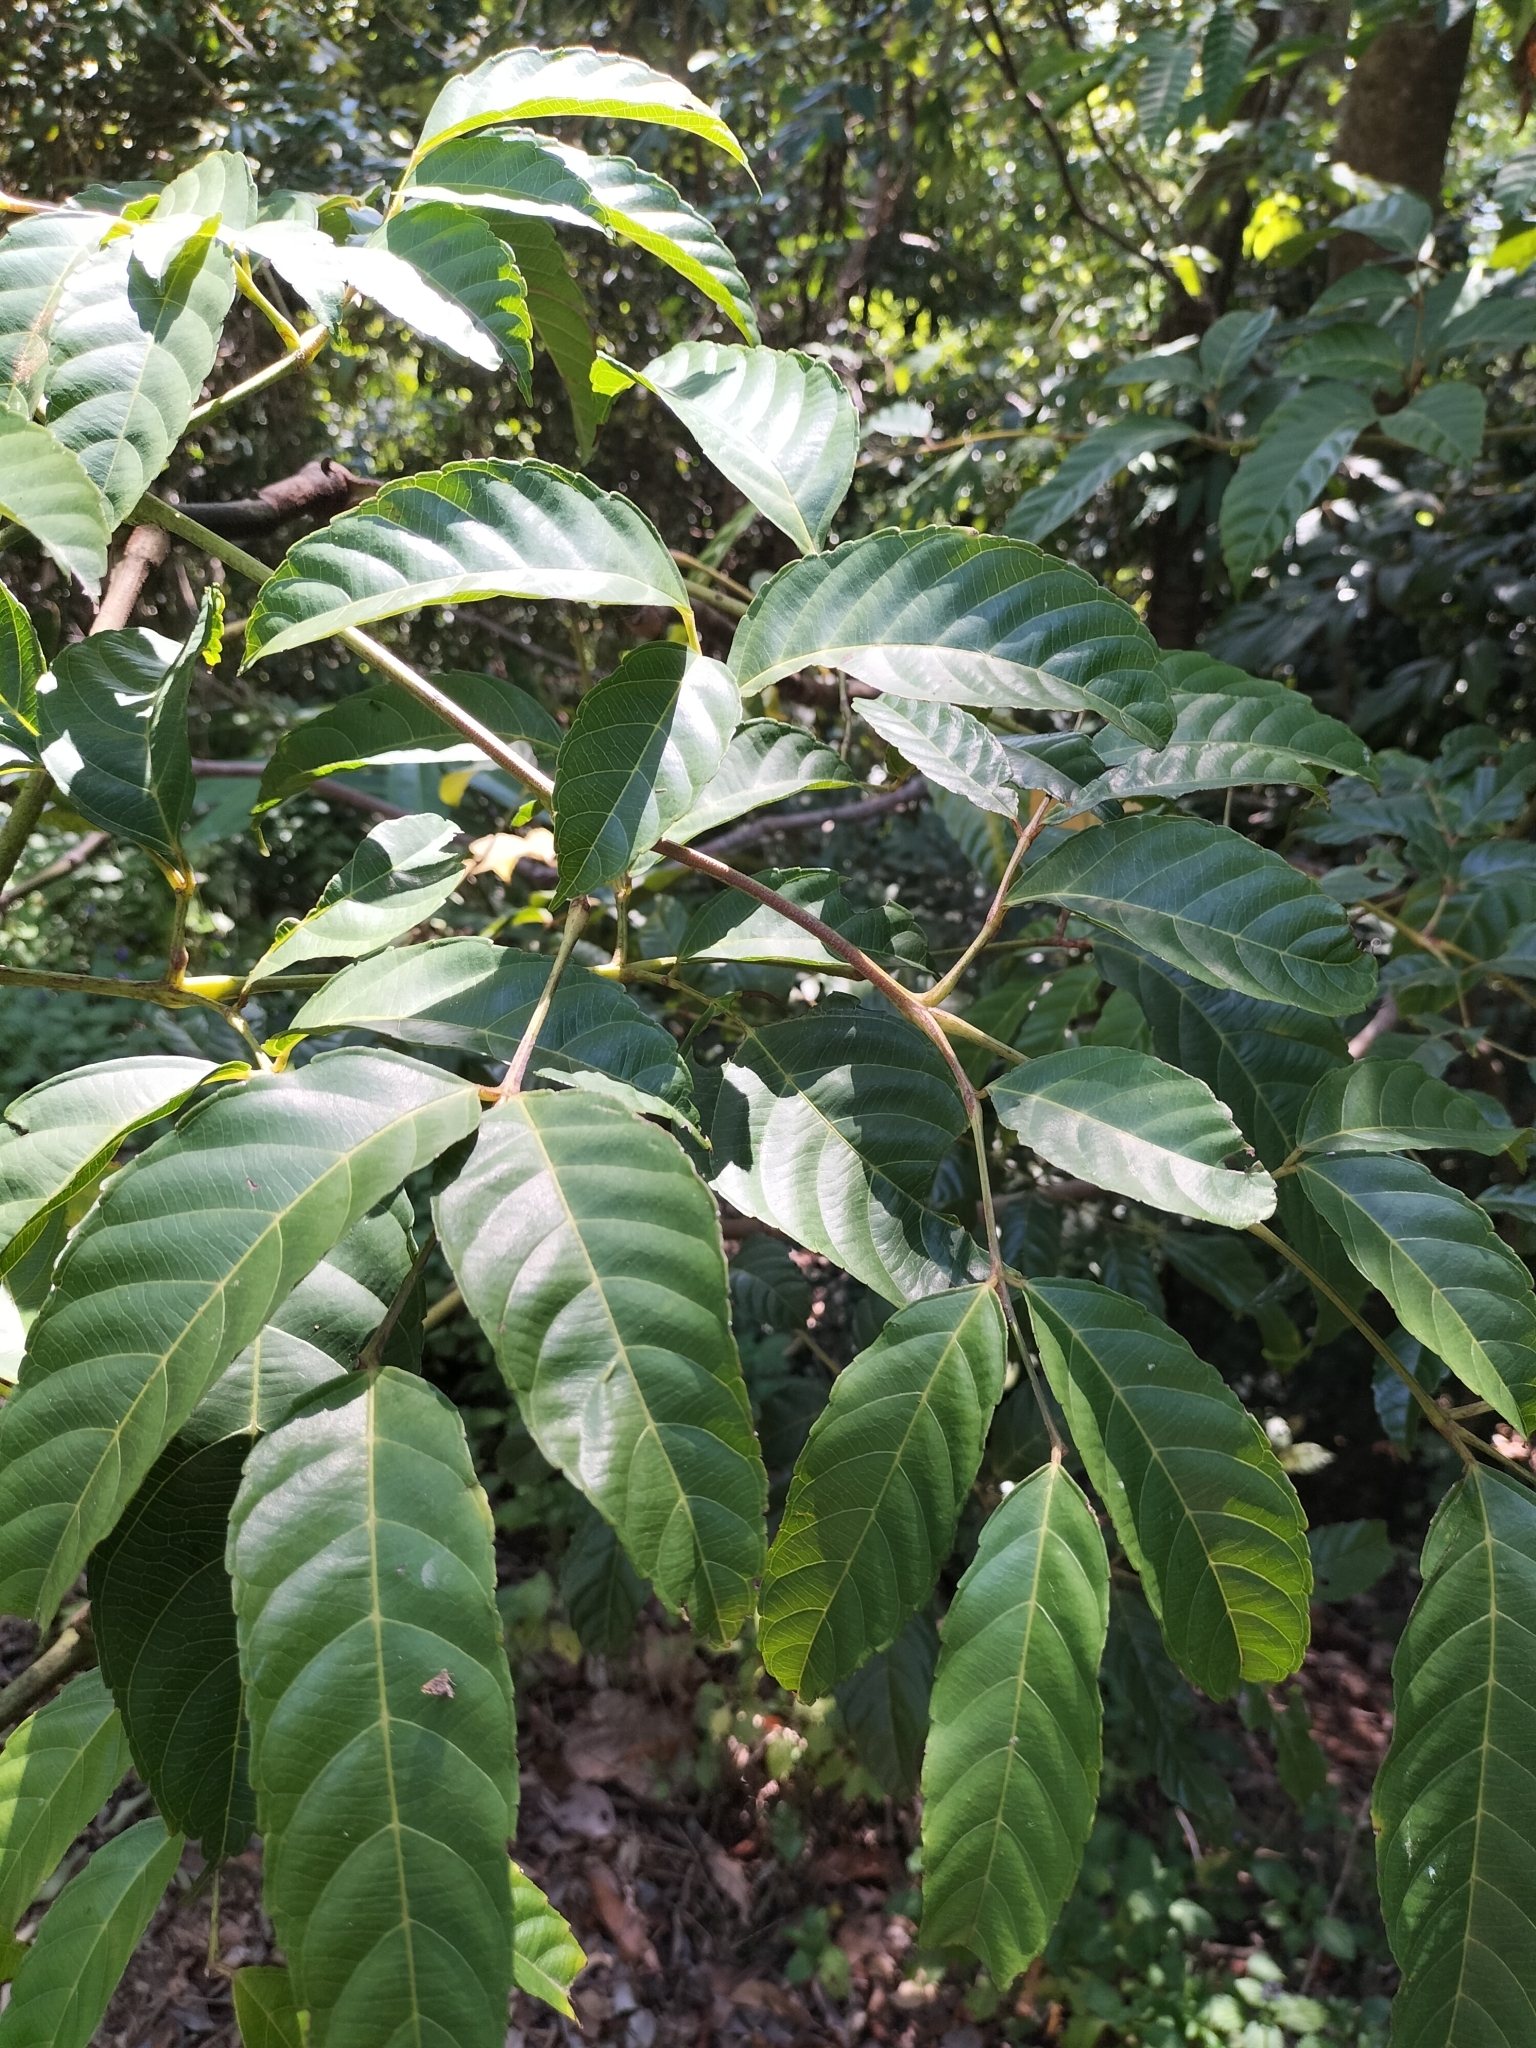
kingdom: Plantae
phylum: Tracheophyta
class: Magnoliopsida
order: Vitales
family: Vitaceae
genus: Leea
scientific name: Leea nova-guineensis
